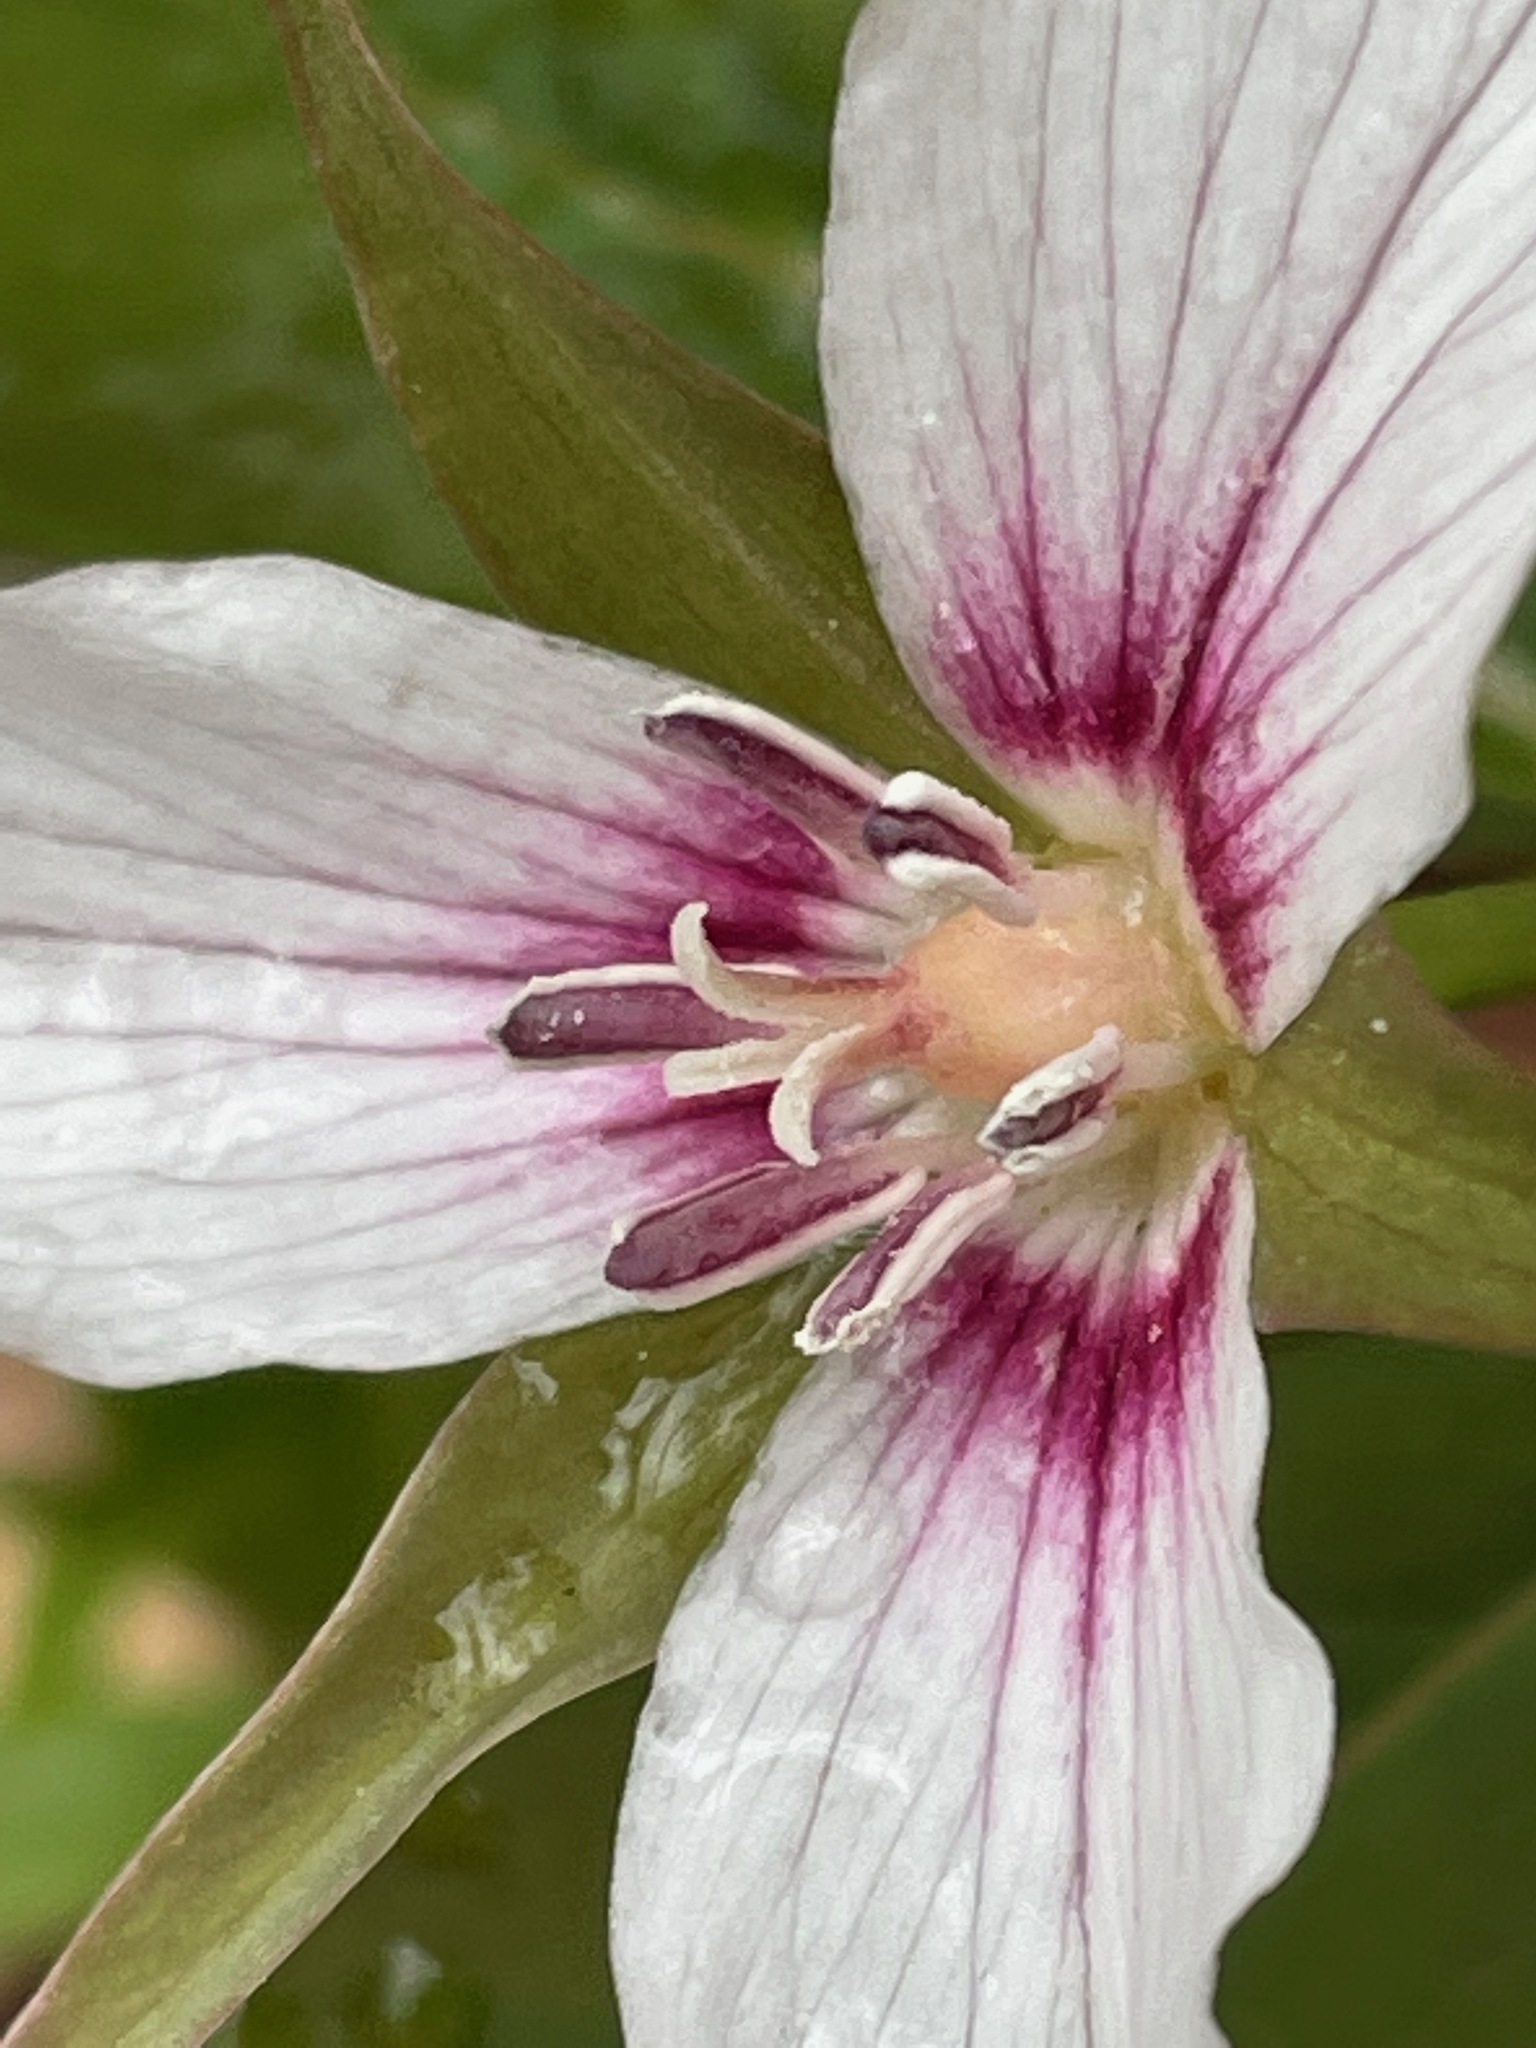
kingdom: Plantae
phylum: Tracheophyta
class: Liliopsida
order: Liliales
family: Melanthiaceae
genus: Trillium
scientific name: Trillium undulatum
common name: Paint trillium
